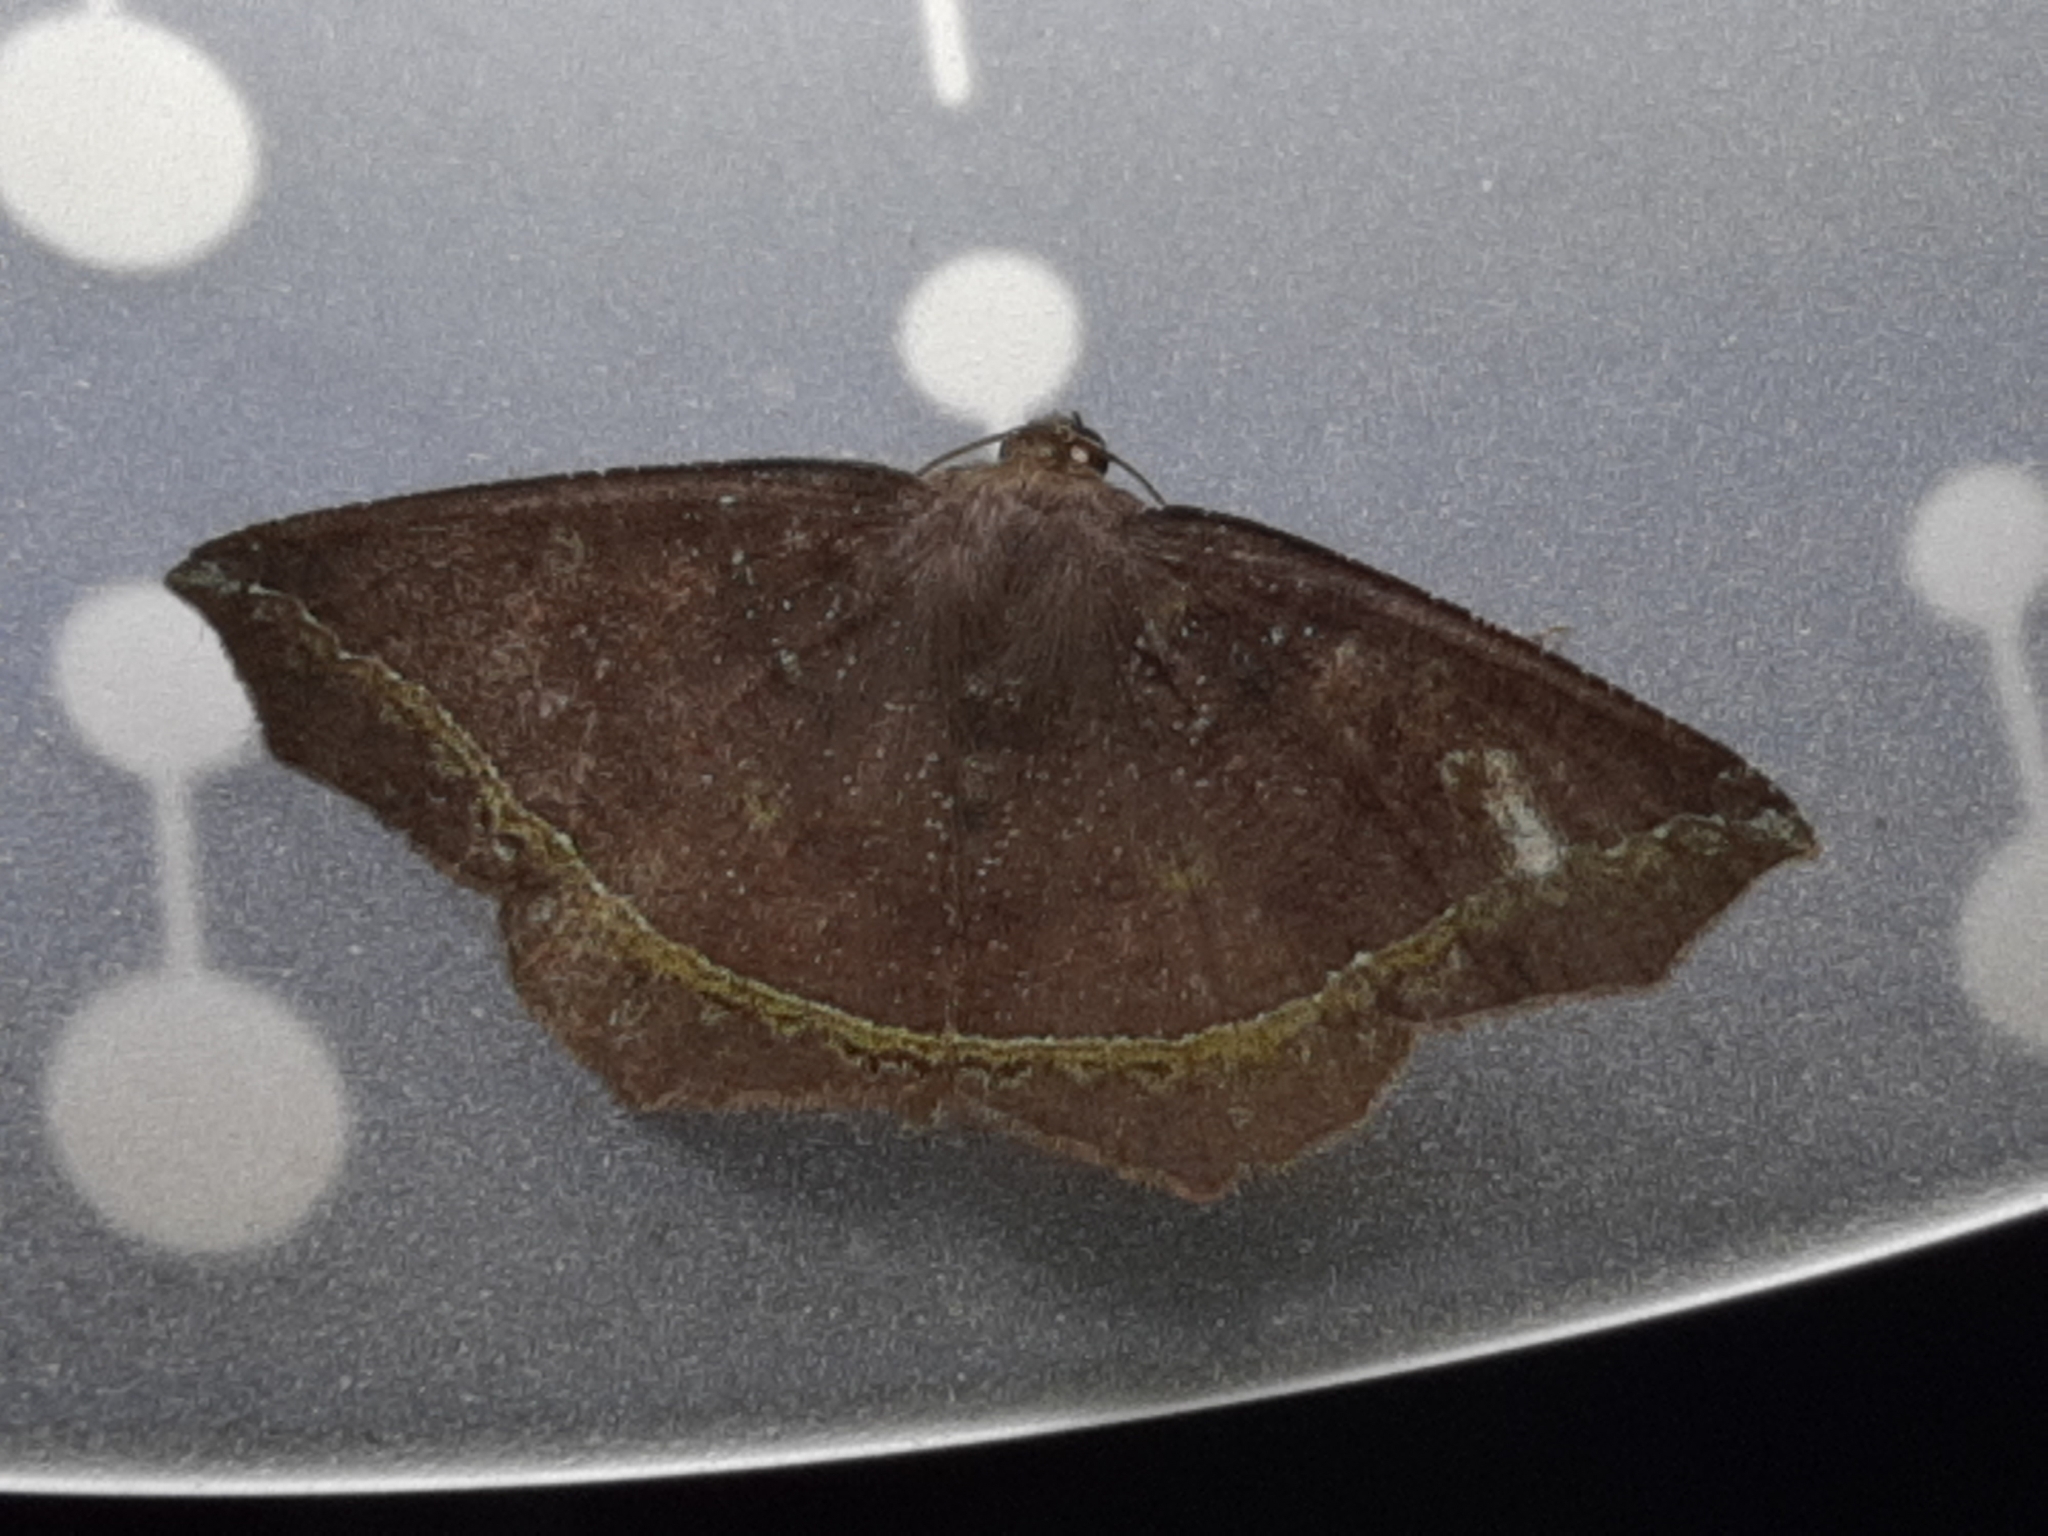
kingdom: Animalia
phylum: Arthropoda
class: Insecta
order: Lepidoptera
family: Geometridae
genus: Synnomos
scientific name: Synnomos firmamentaria
